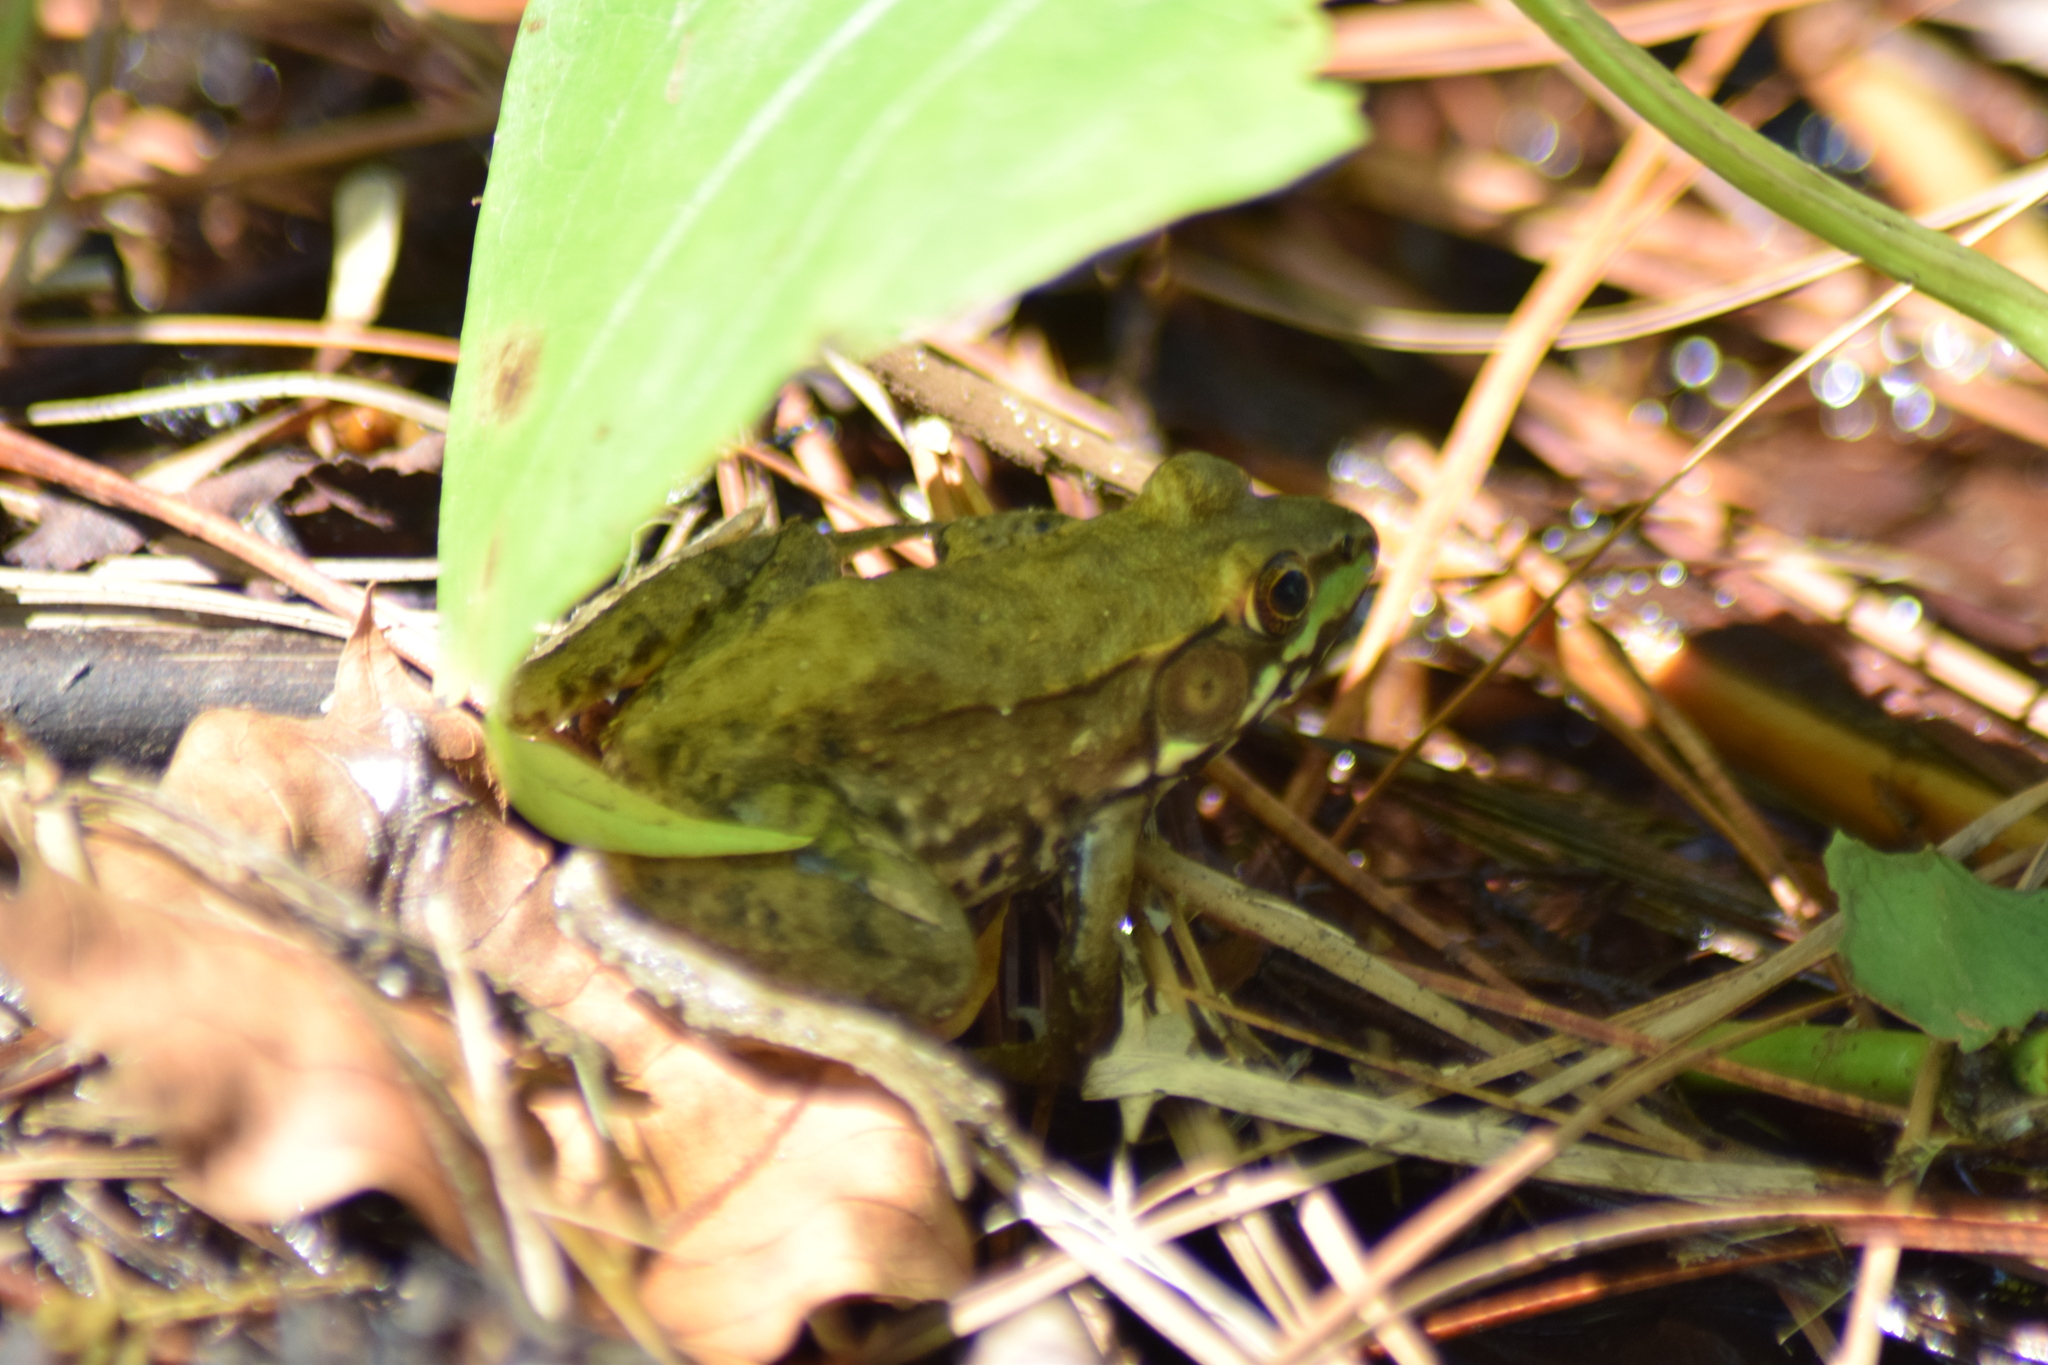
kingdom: Animalia
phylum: Chordata
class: Amphibia
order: Anura
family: Ranidae
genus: Lithobates
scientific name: Lithobates clamitans
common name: Green frog
